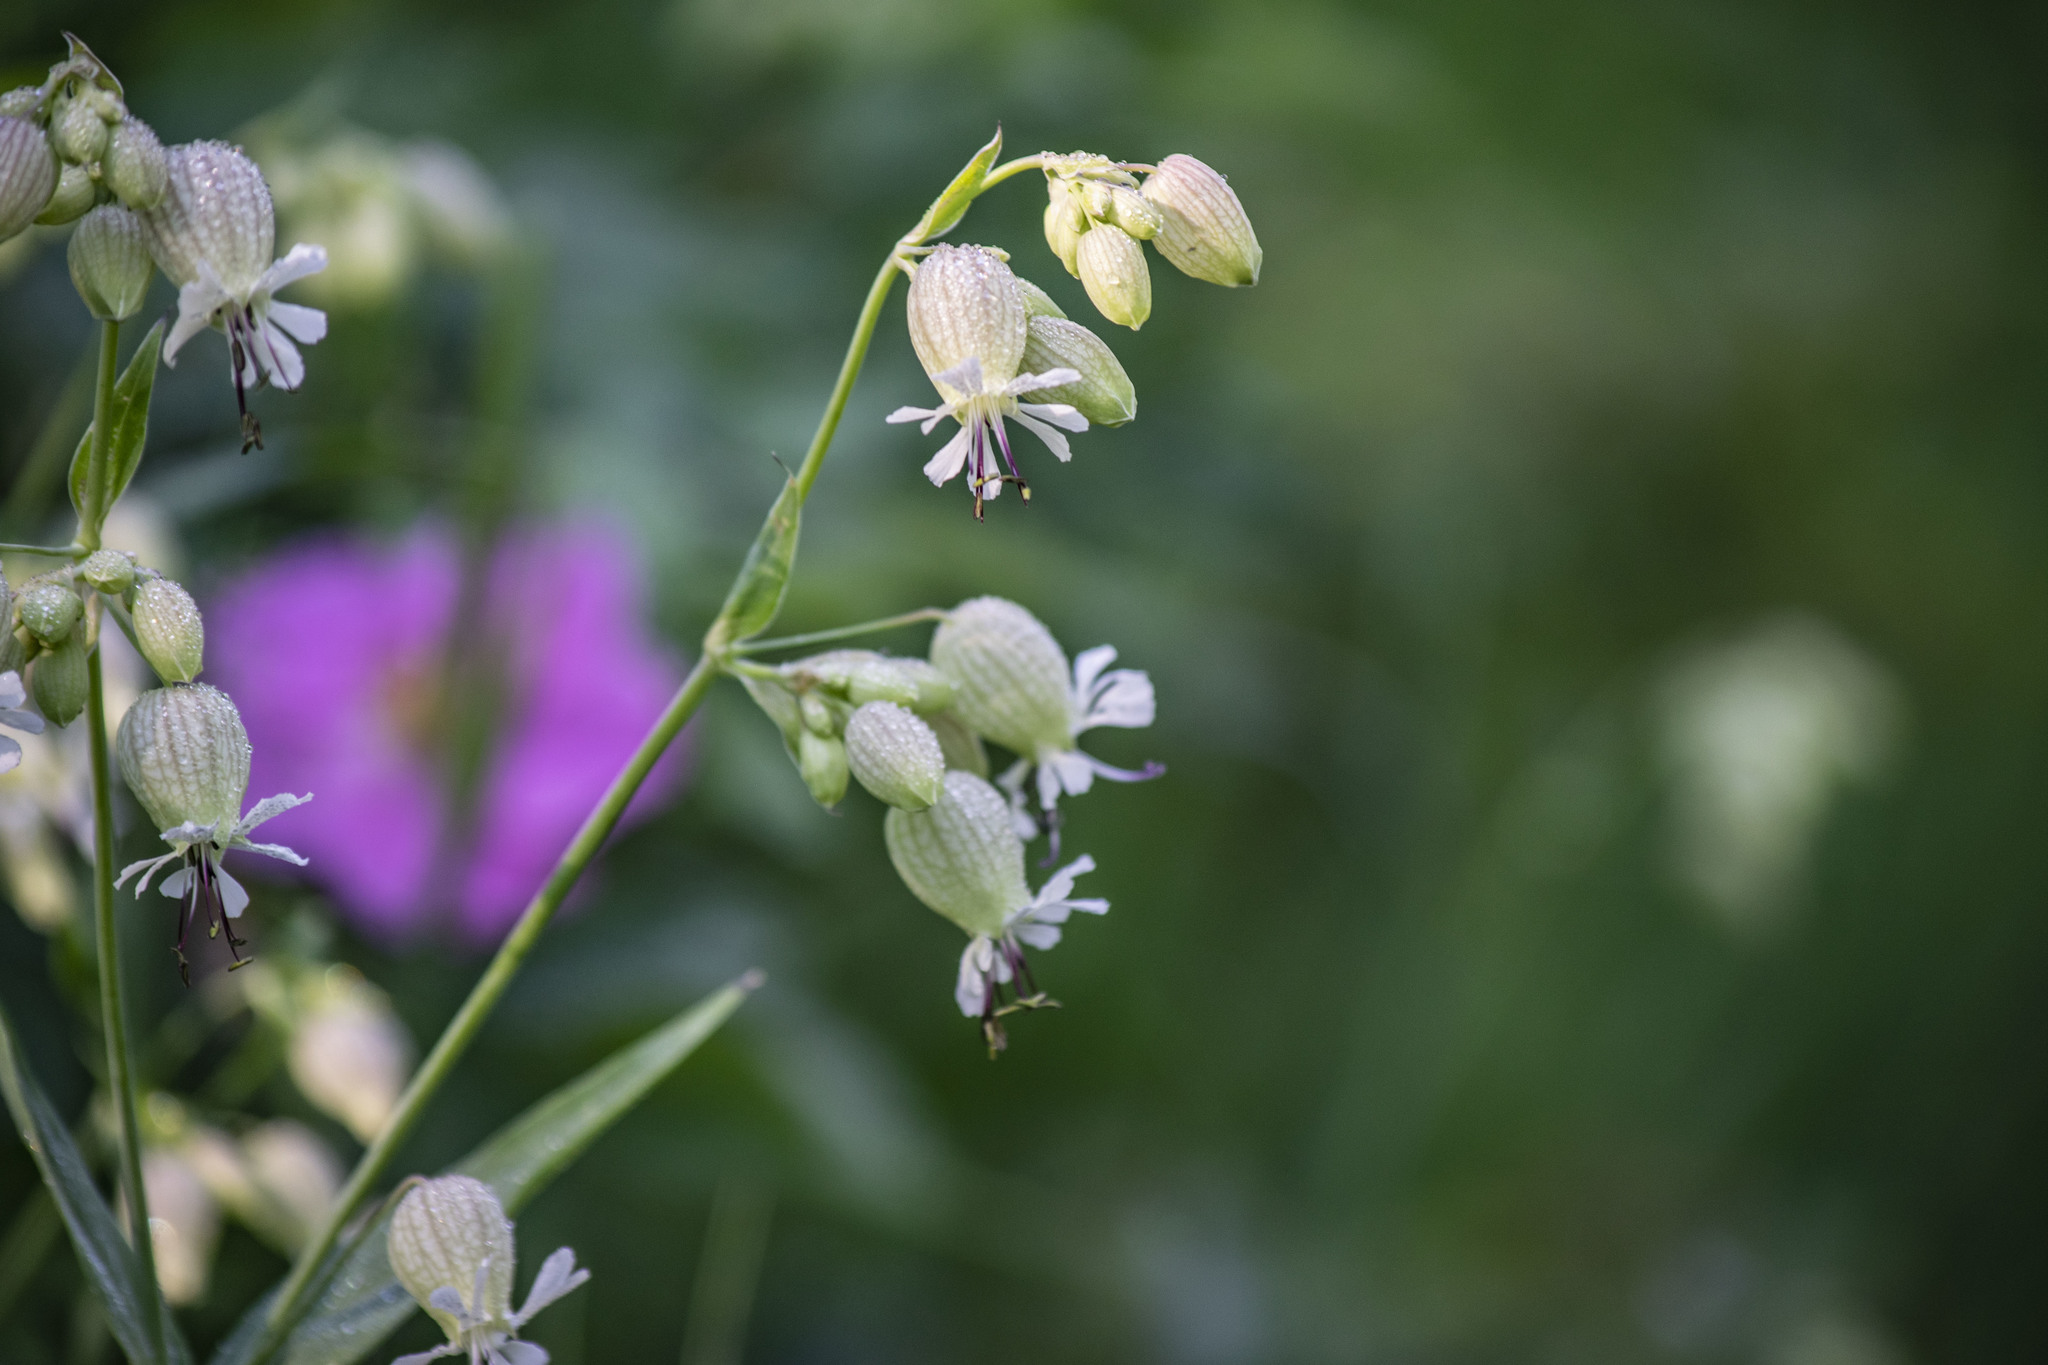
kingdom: Plantae
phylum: Tracheophyta
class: Magnoliopsida
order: Caryophyllales
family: Caryophyllaceae
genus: Silene
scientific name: Silene vulgaris
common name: Bladder campion
